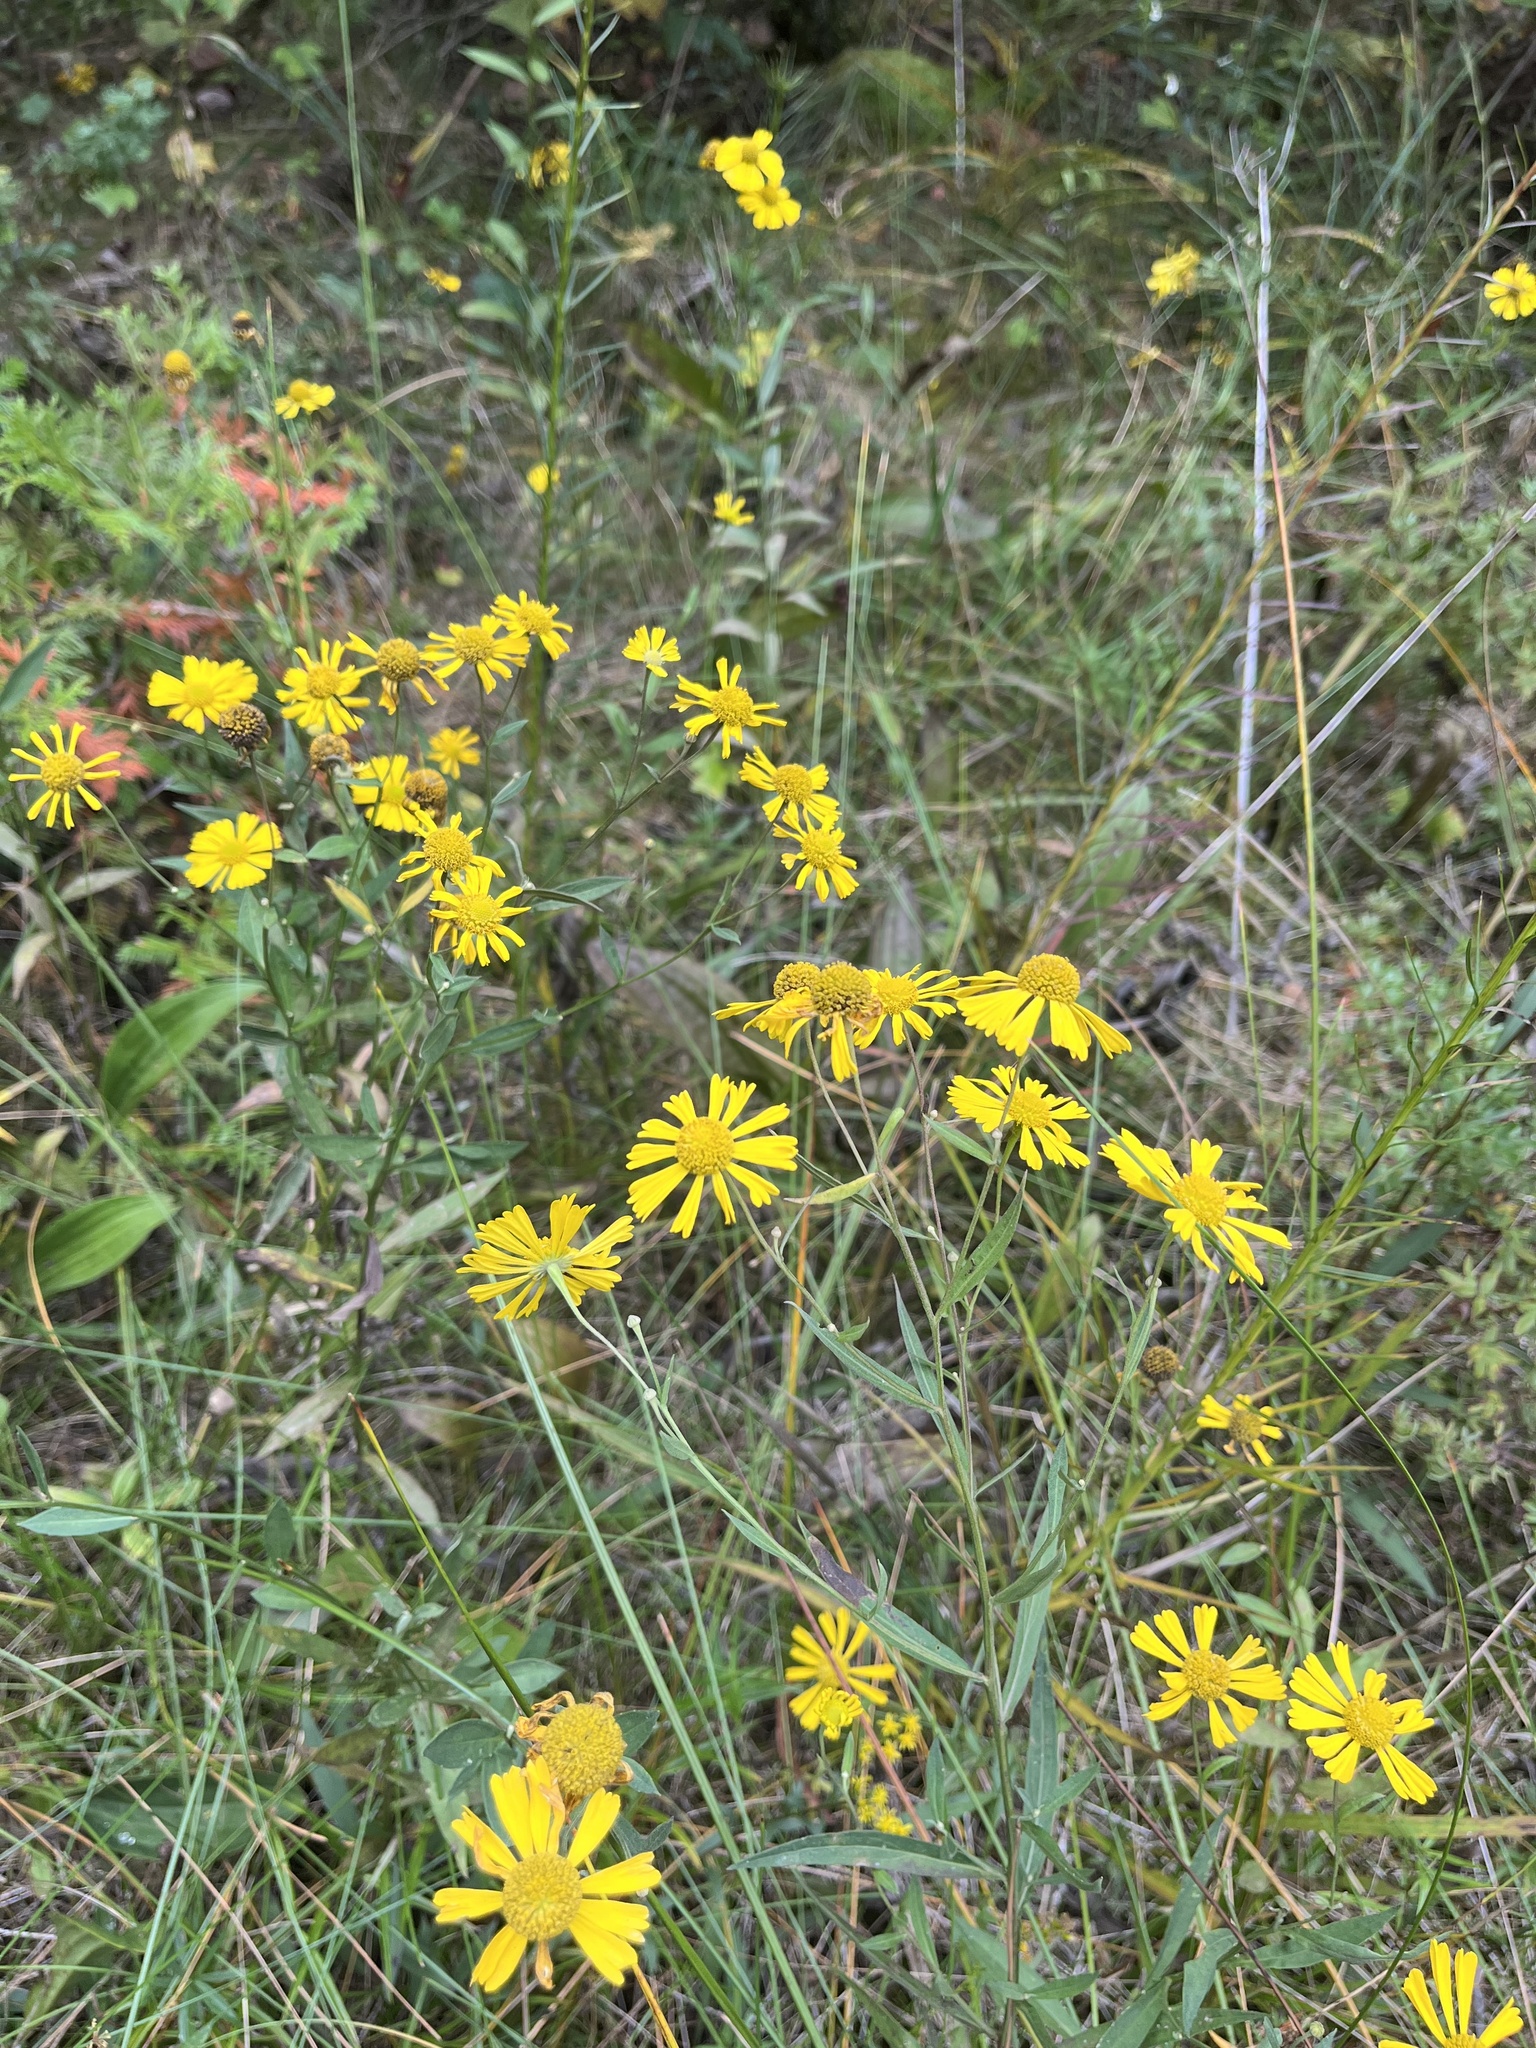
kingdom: Plantae
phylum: Tracheophyta
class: Magnoliopsida
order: Asterales
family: Asteraceae
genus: Helenium
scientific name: Helenium autumnale
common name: Sneezeweed
